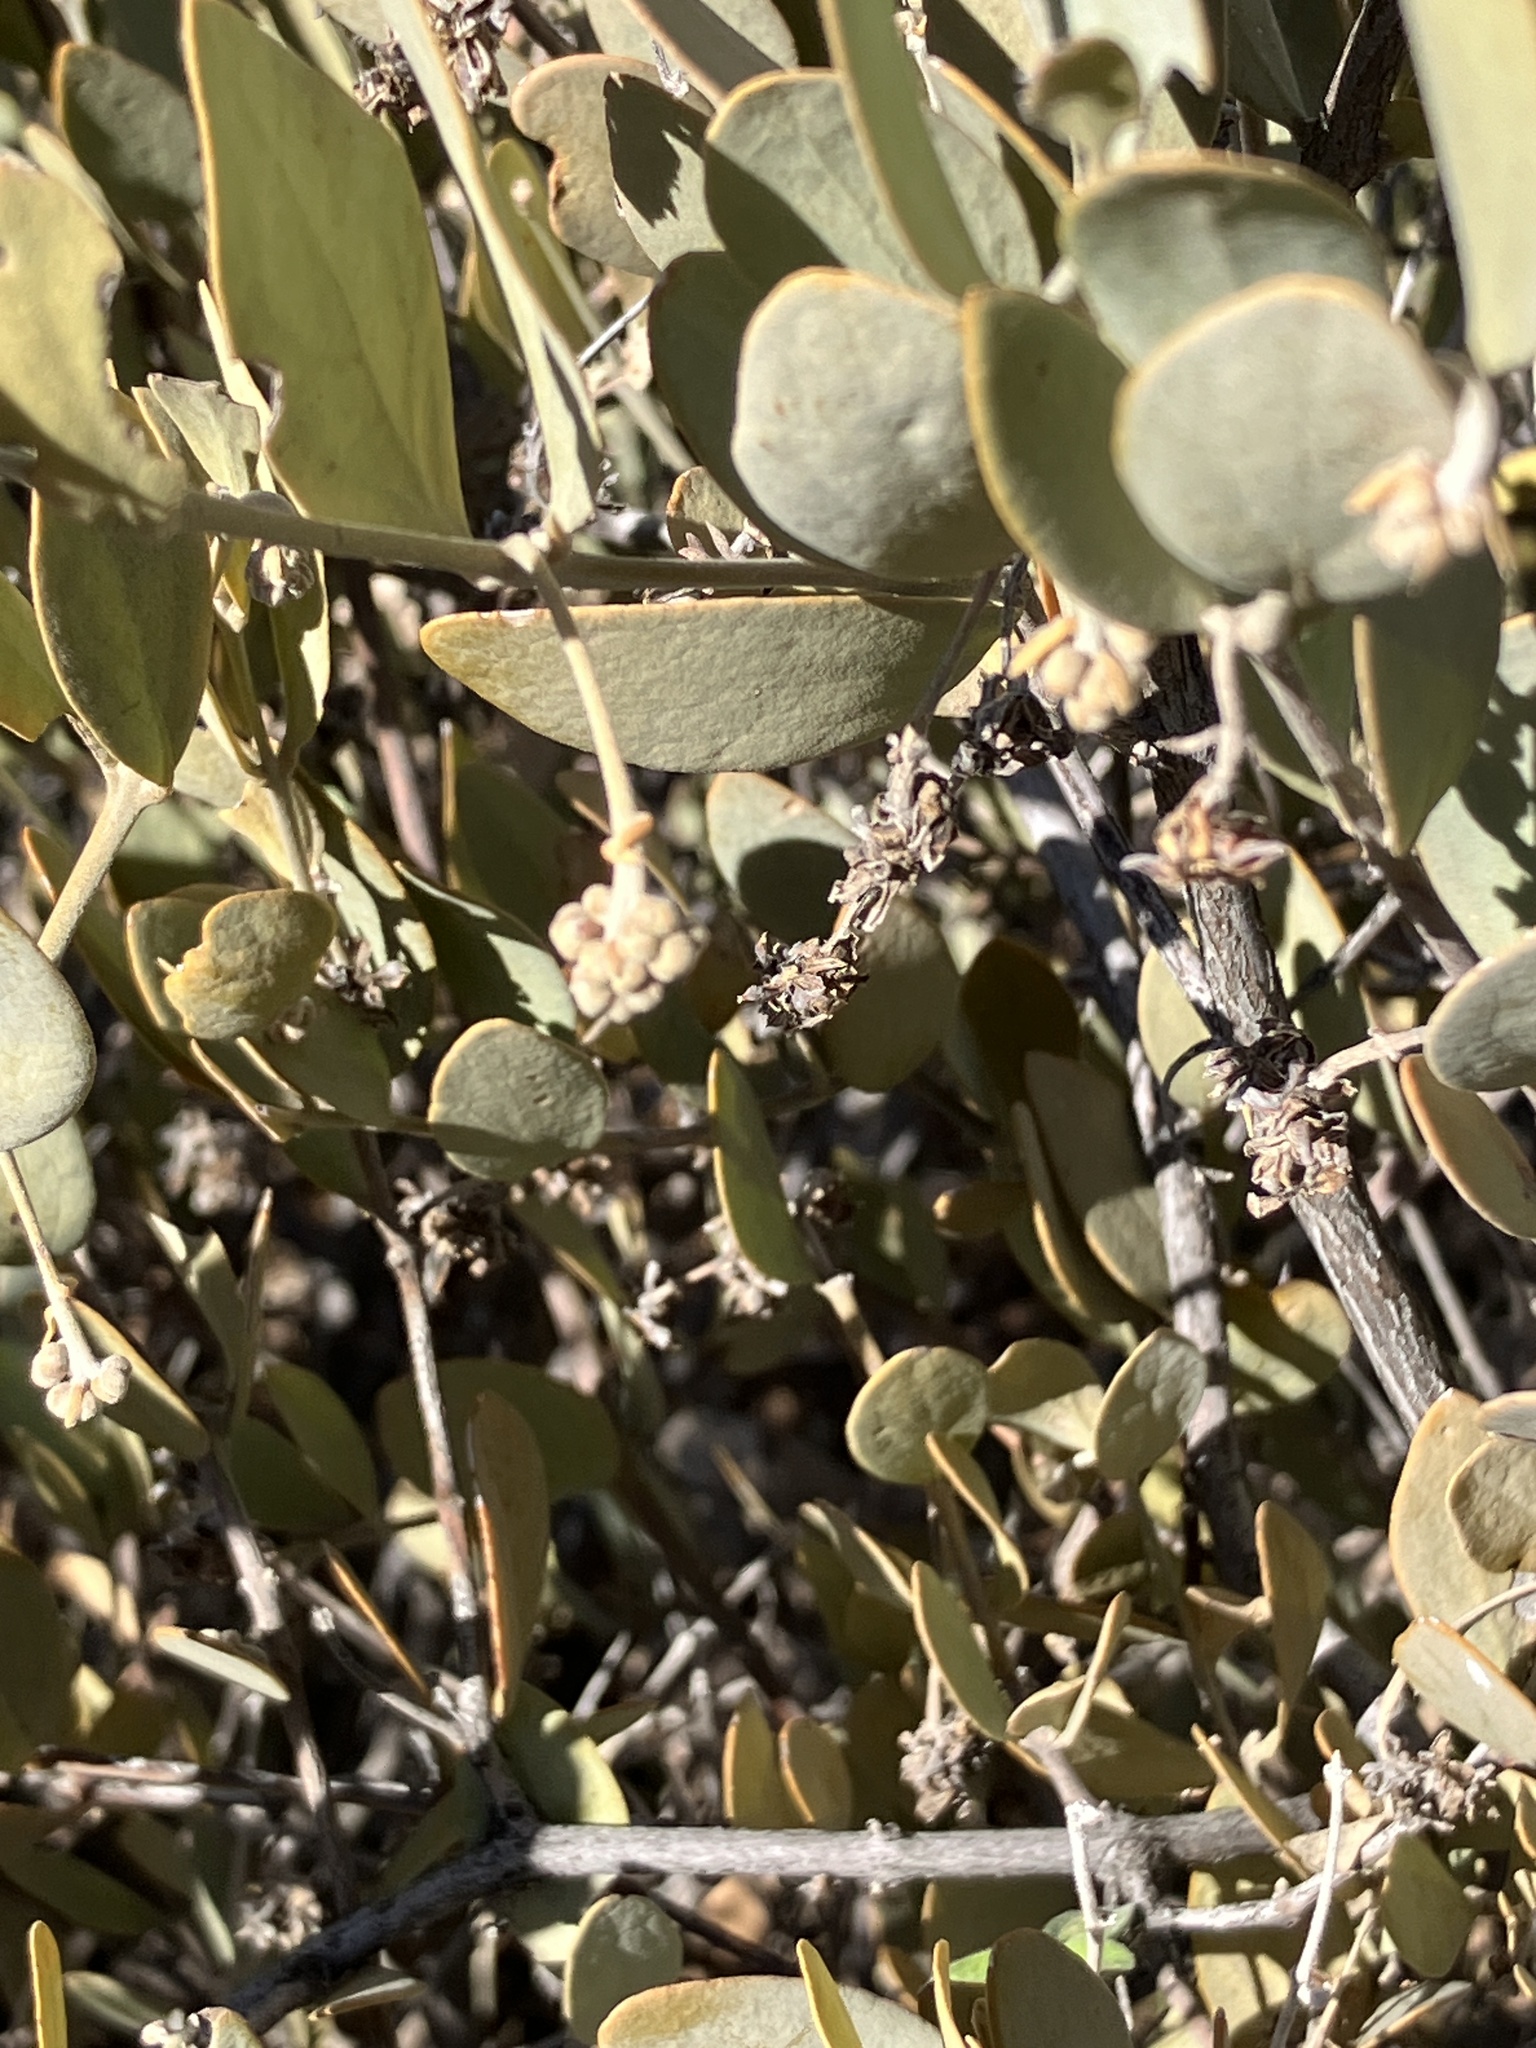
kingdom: Plantae
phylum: Tracheophyta
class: Magnoliopsida
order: Caryophyllales
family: Simmondsiaceae
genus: Simmondsia
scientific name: Simmondsia chinensis
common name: Jojoba
